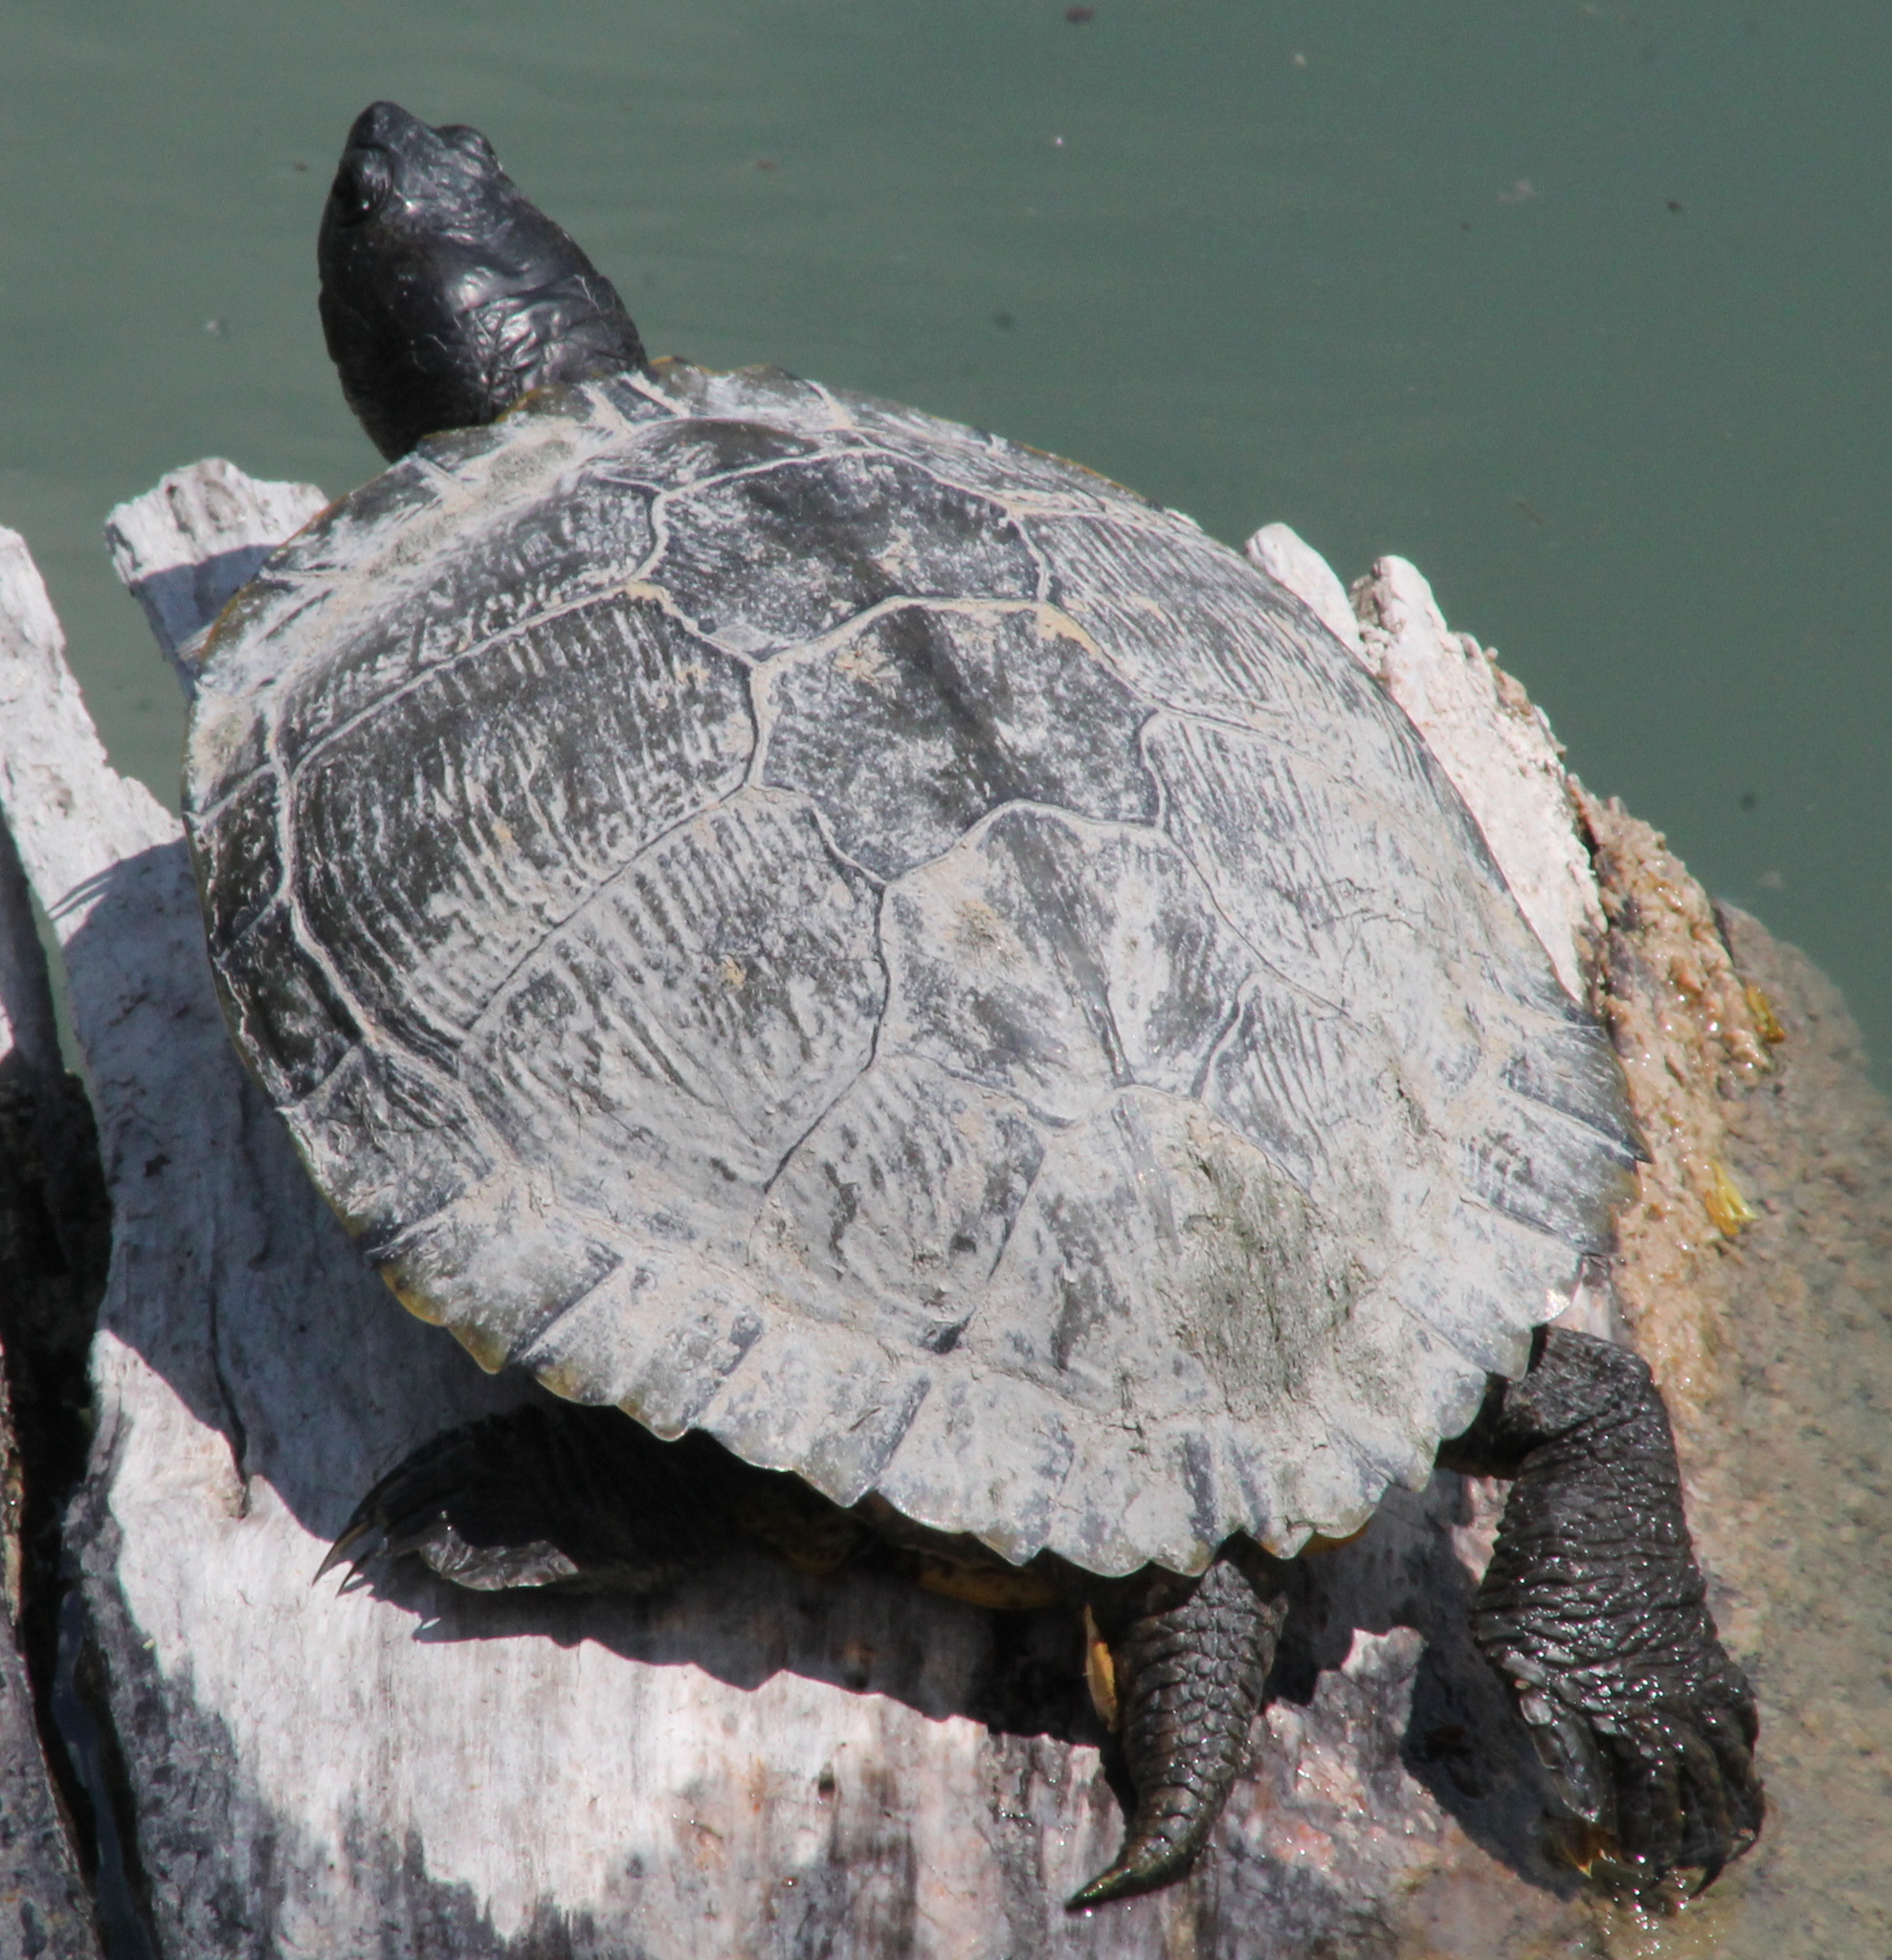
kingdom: Animalia
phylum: Chordata
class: Testudines
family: Emydidae
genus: Trachemys
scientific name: Trachemys scripta
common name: Slider
